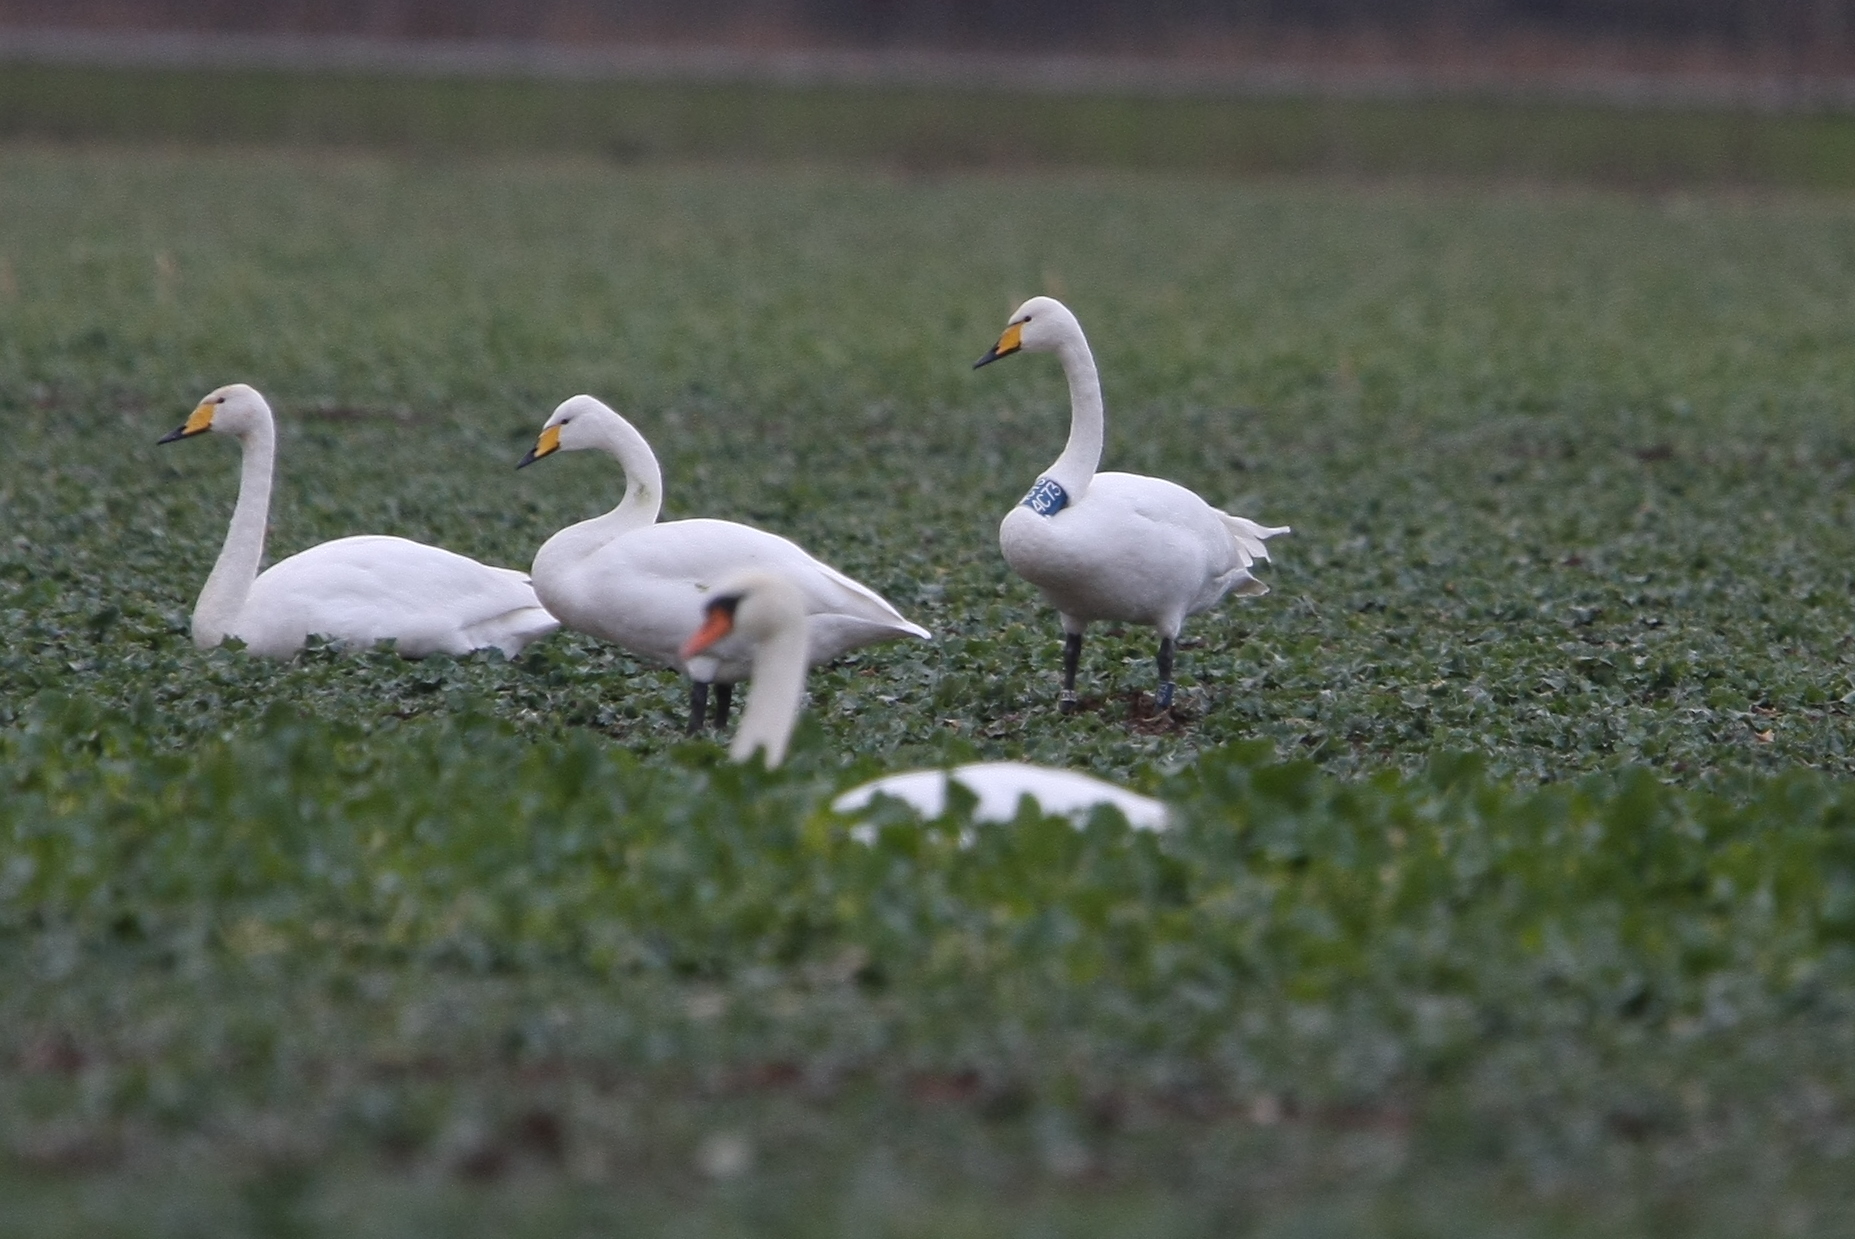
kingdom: Animalia
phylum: Chordata
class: Aves
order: Anseriformes
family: Anatidae
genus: Cygnus
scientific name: Cygnus cygnus
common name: Whooper swan
